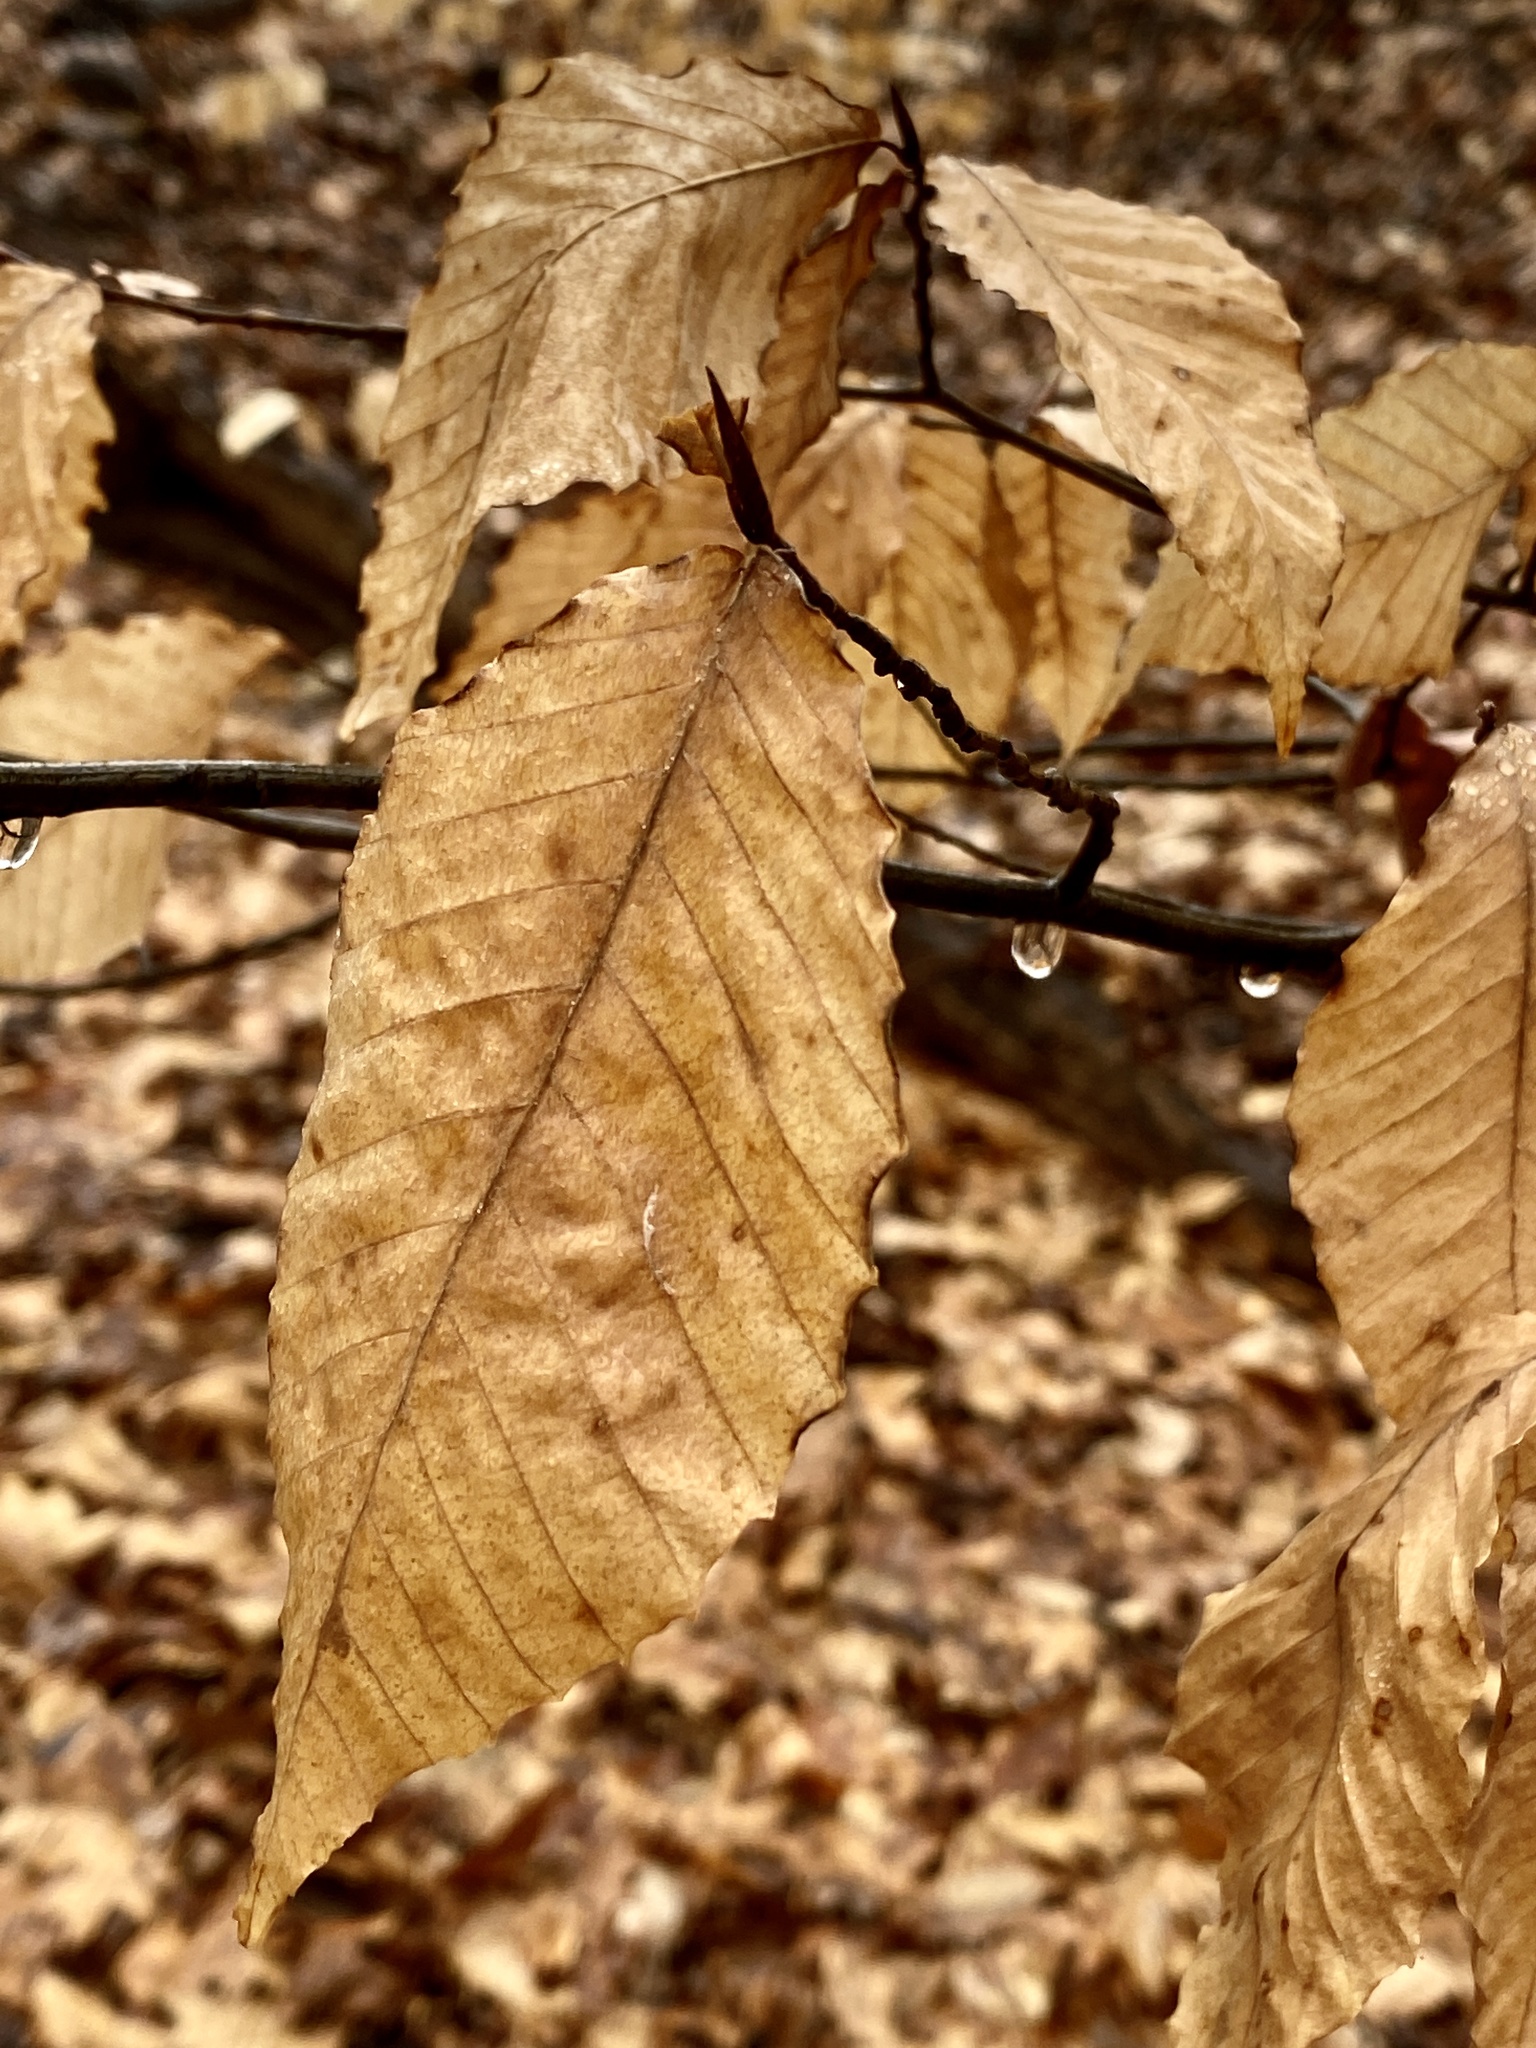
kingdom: Plantae
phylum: Tracheophyta
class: Magnoliopsida
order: Fagales
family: Fagaceae
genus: Fagus
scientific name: Fagus grandifolia
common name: American beech
